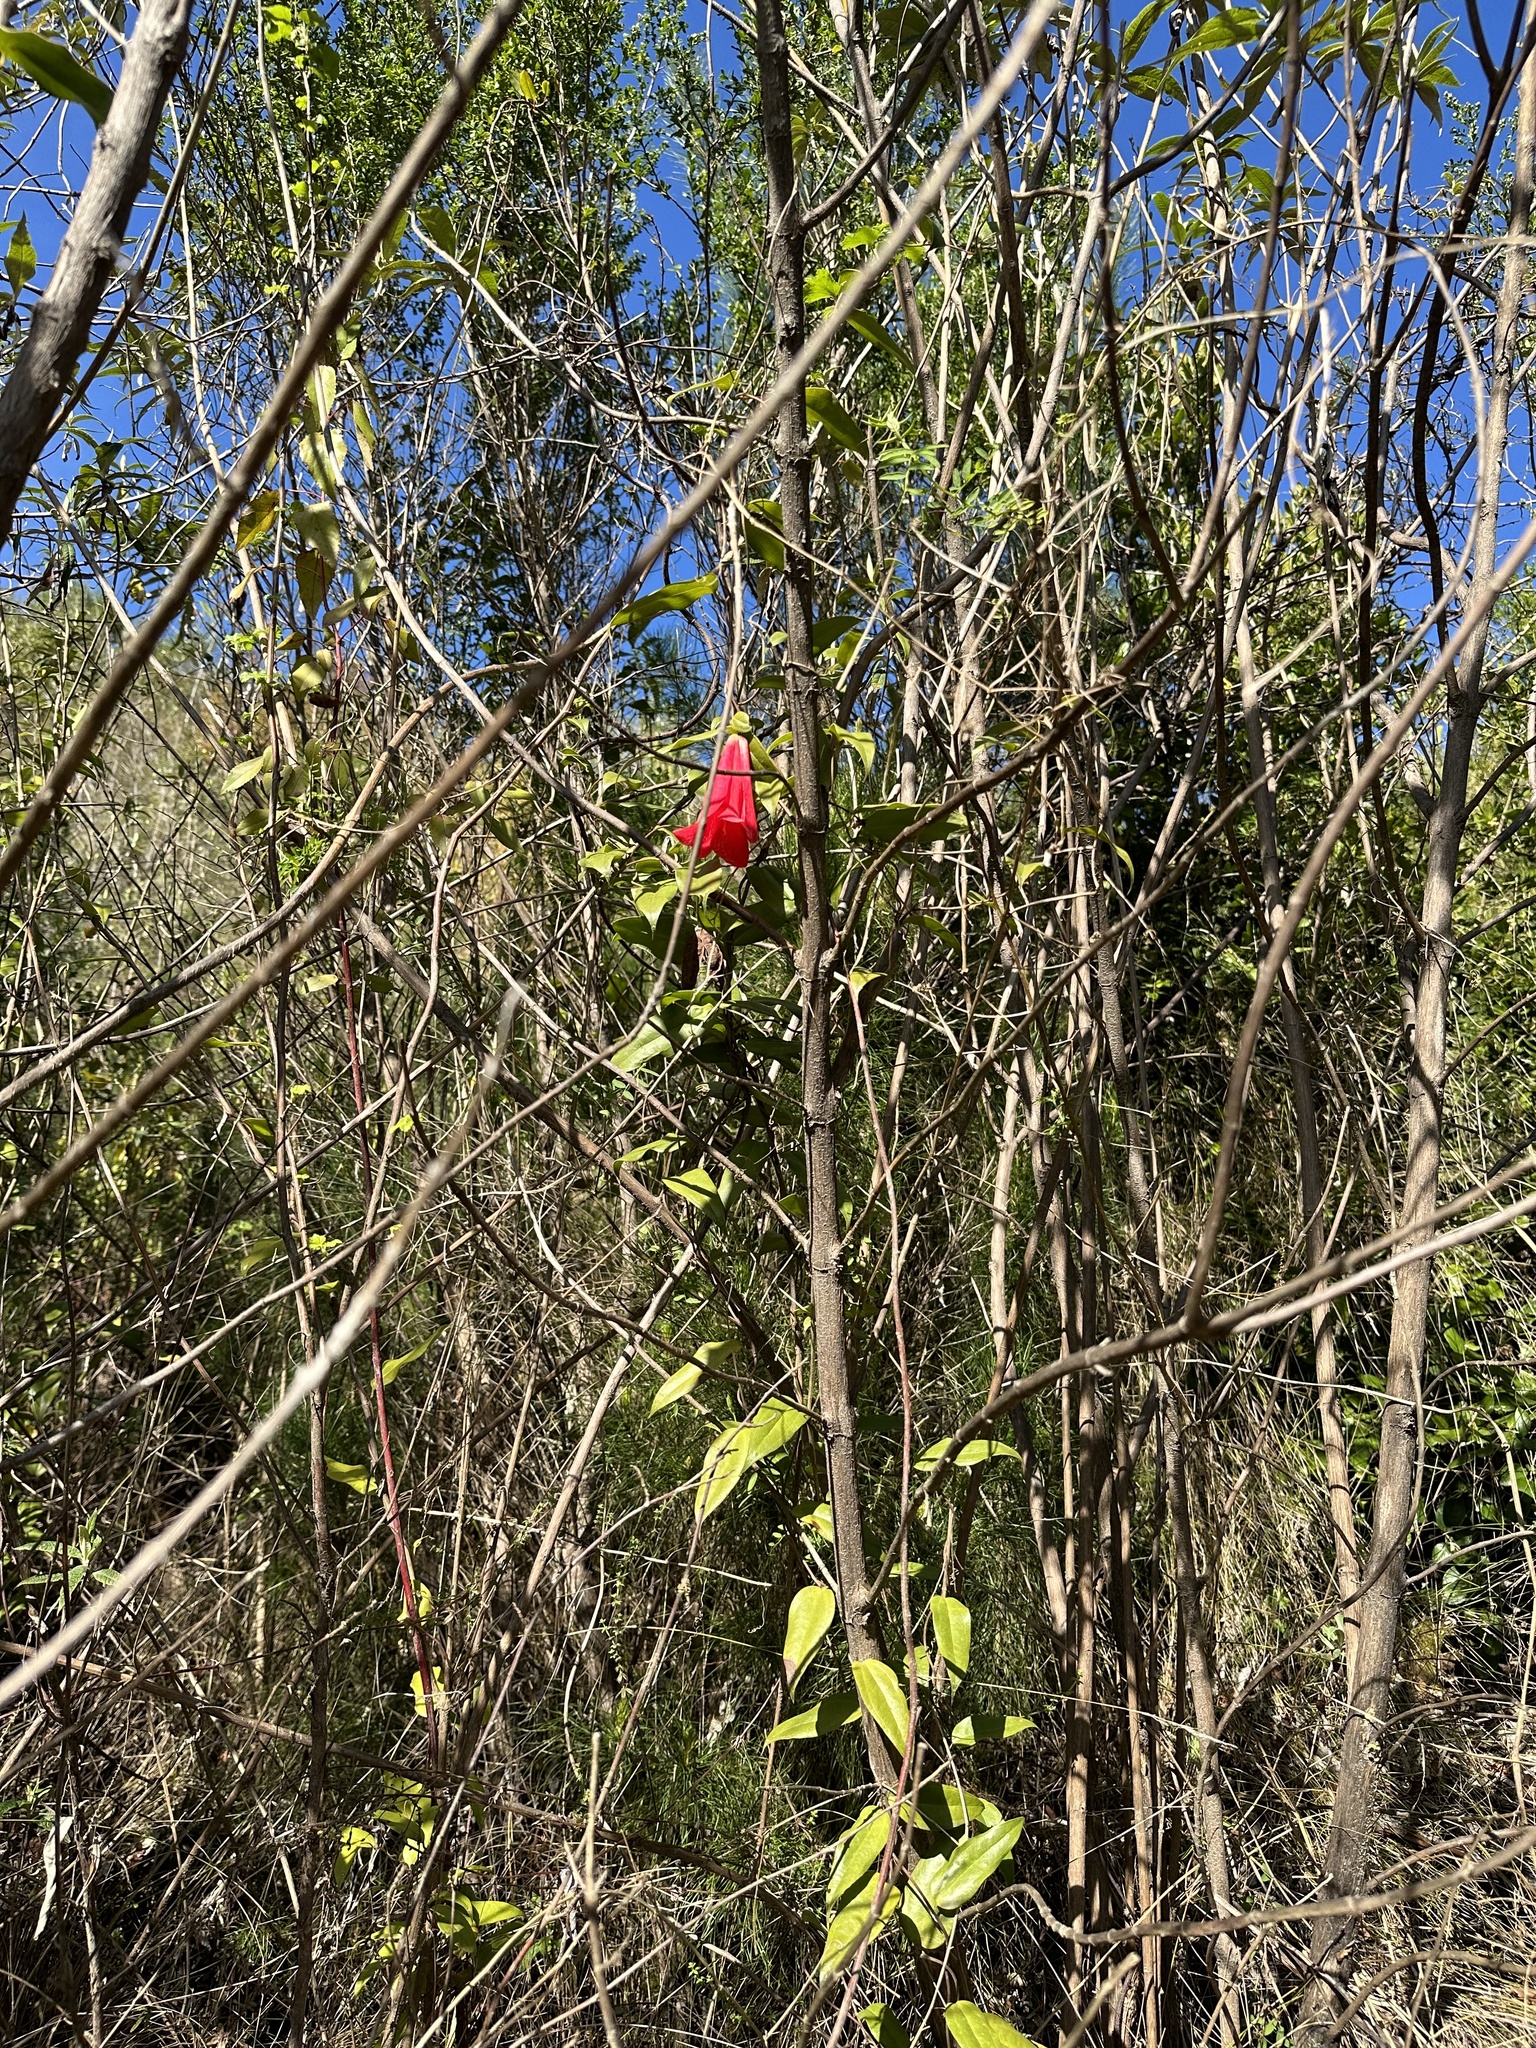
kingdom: Plantae
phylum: Tracheophyta
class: Liliopsida
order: Liliales
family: Philesiaceae
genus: Lapageria
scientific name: Lapageria rosea
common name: Chilean-bellflower
